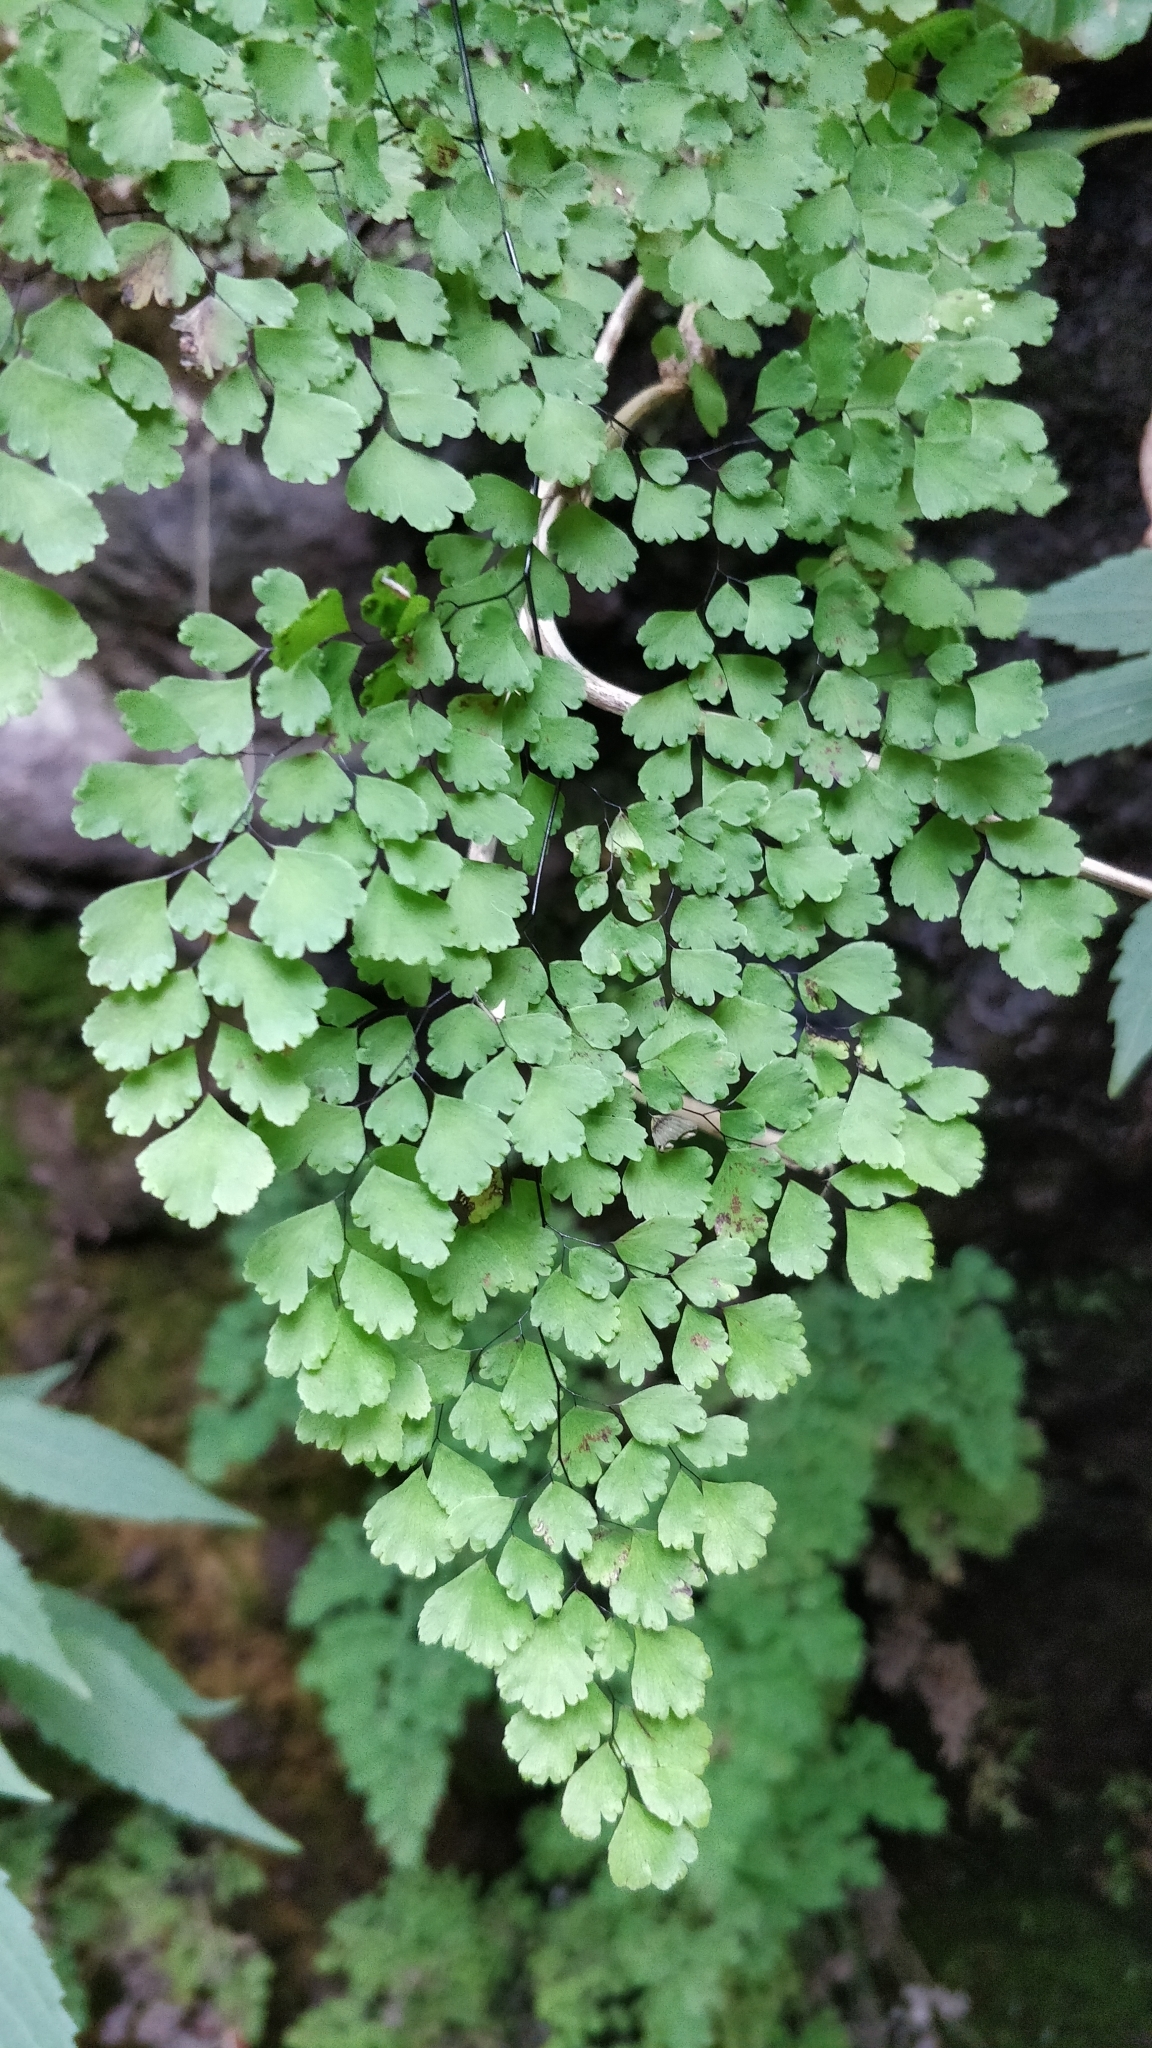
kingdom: Plantae
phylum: Tracheophyta
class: Polypodiopsida
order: Polypodiales
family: Pteridaceae
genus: Adiantum
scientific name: Adiantum raddianum
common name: Delta maidenhair fern
